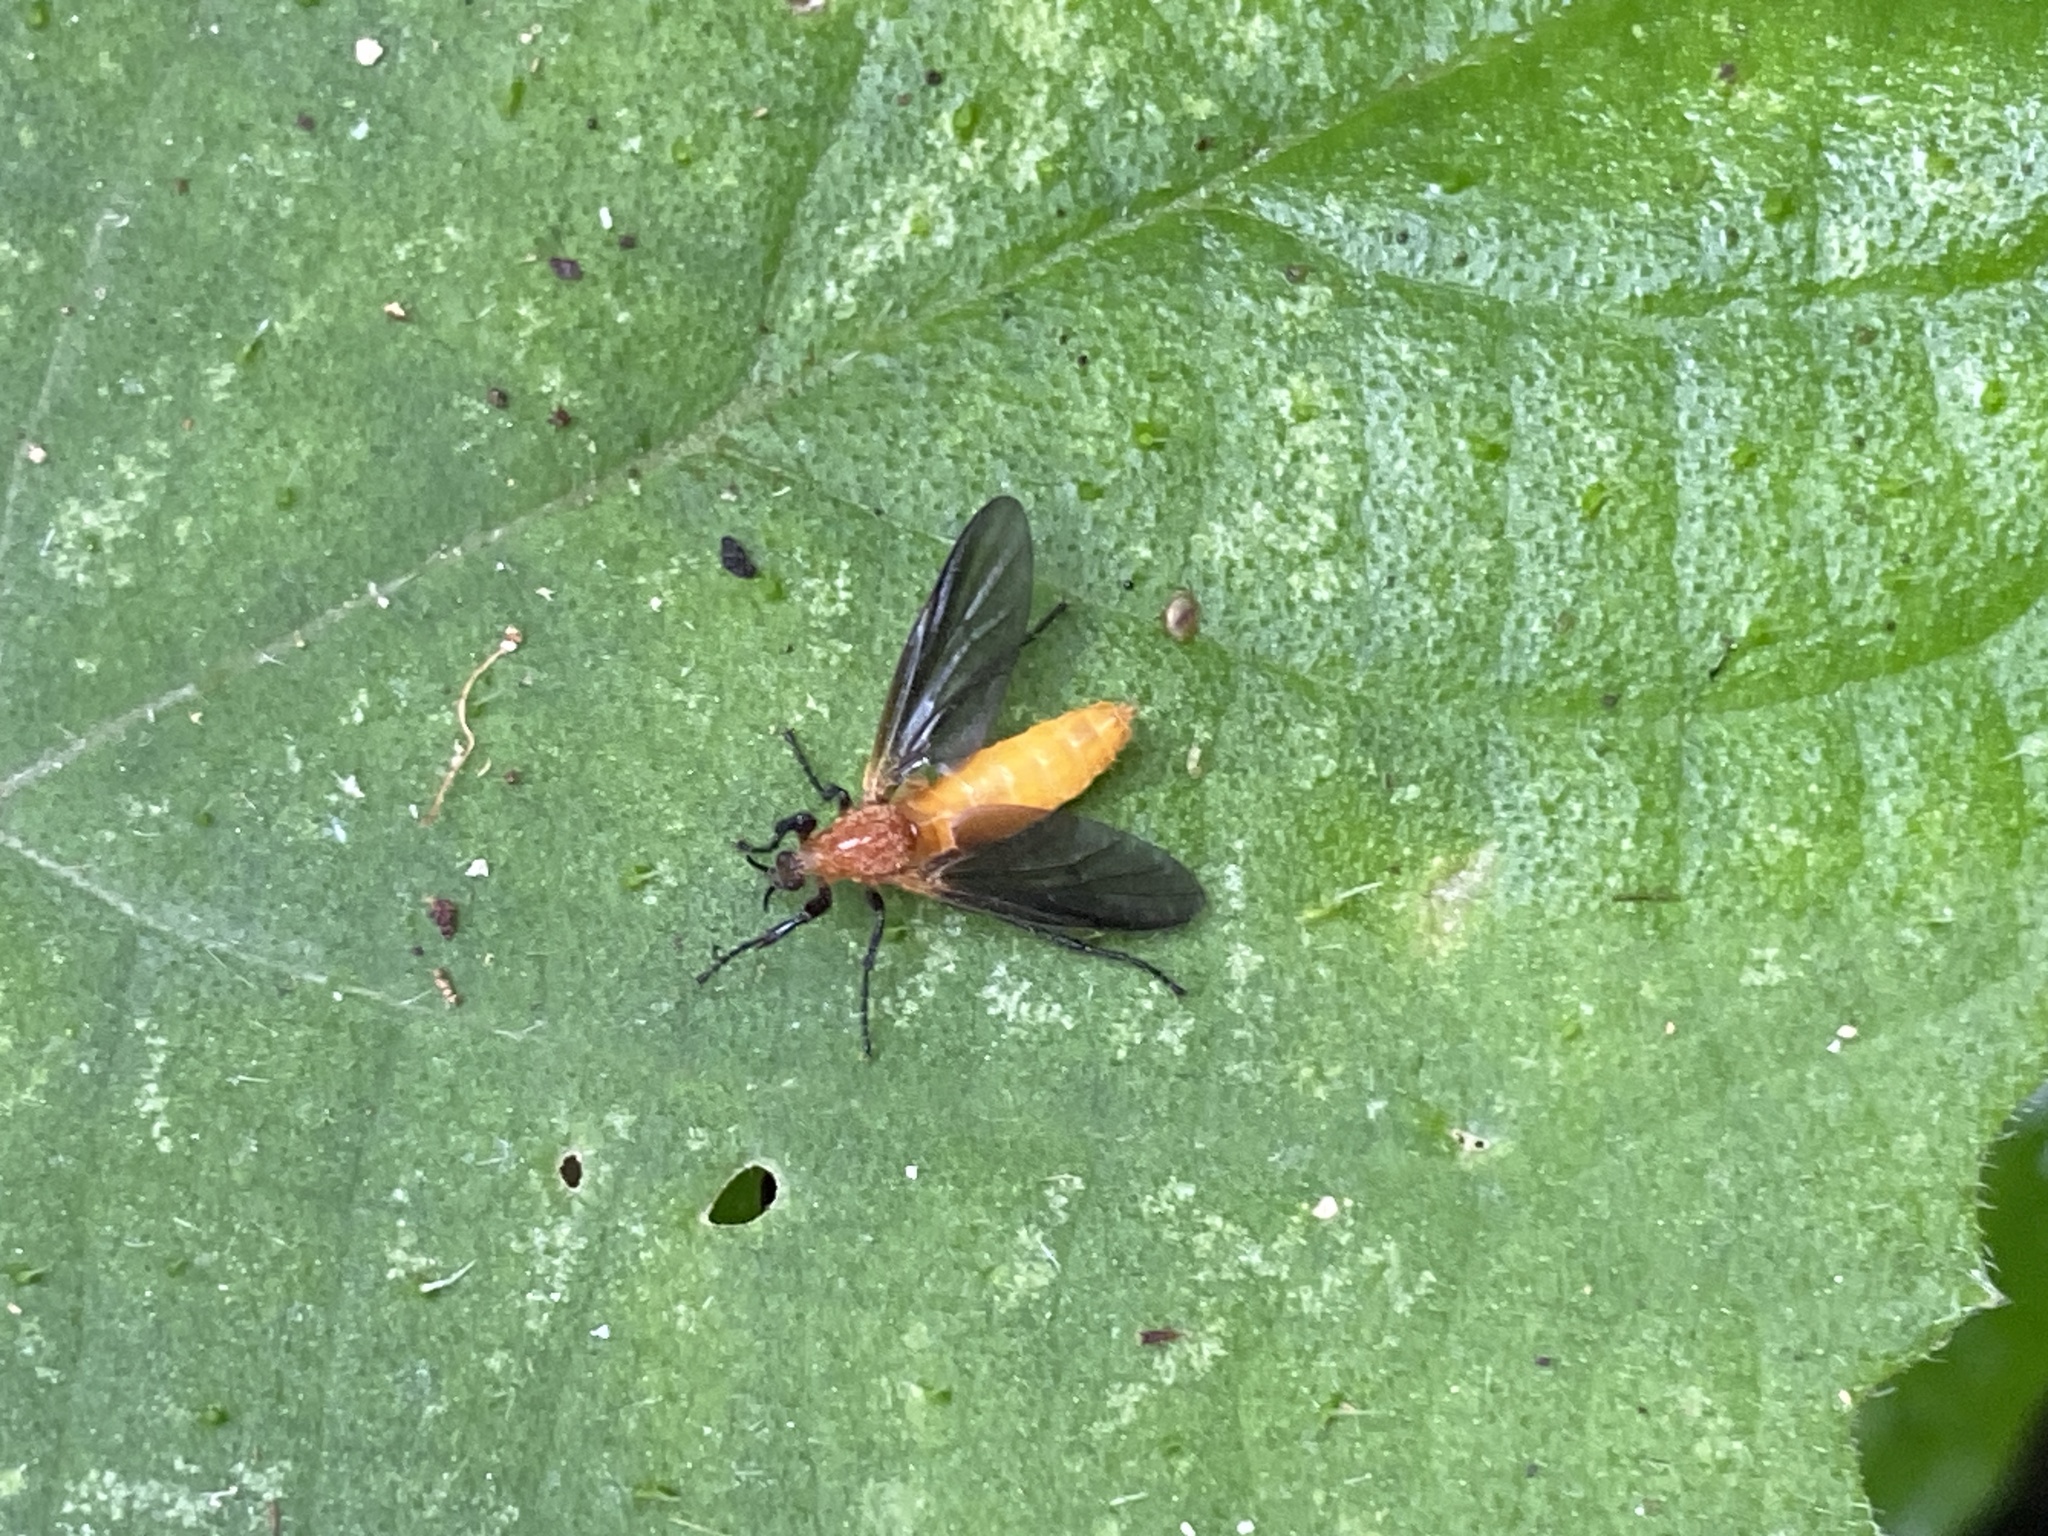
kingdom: Animalia
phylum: Arthropoda
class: Insecta
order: Diptera
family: Bibionidae
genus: Bibio
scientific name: Bibio imitator
